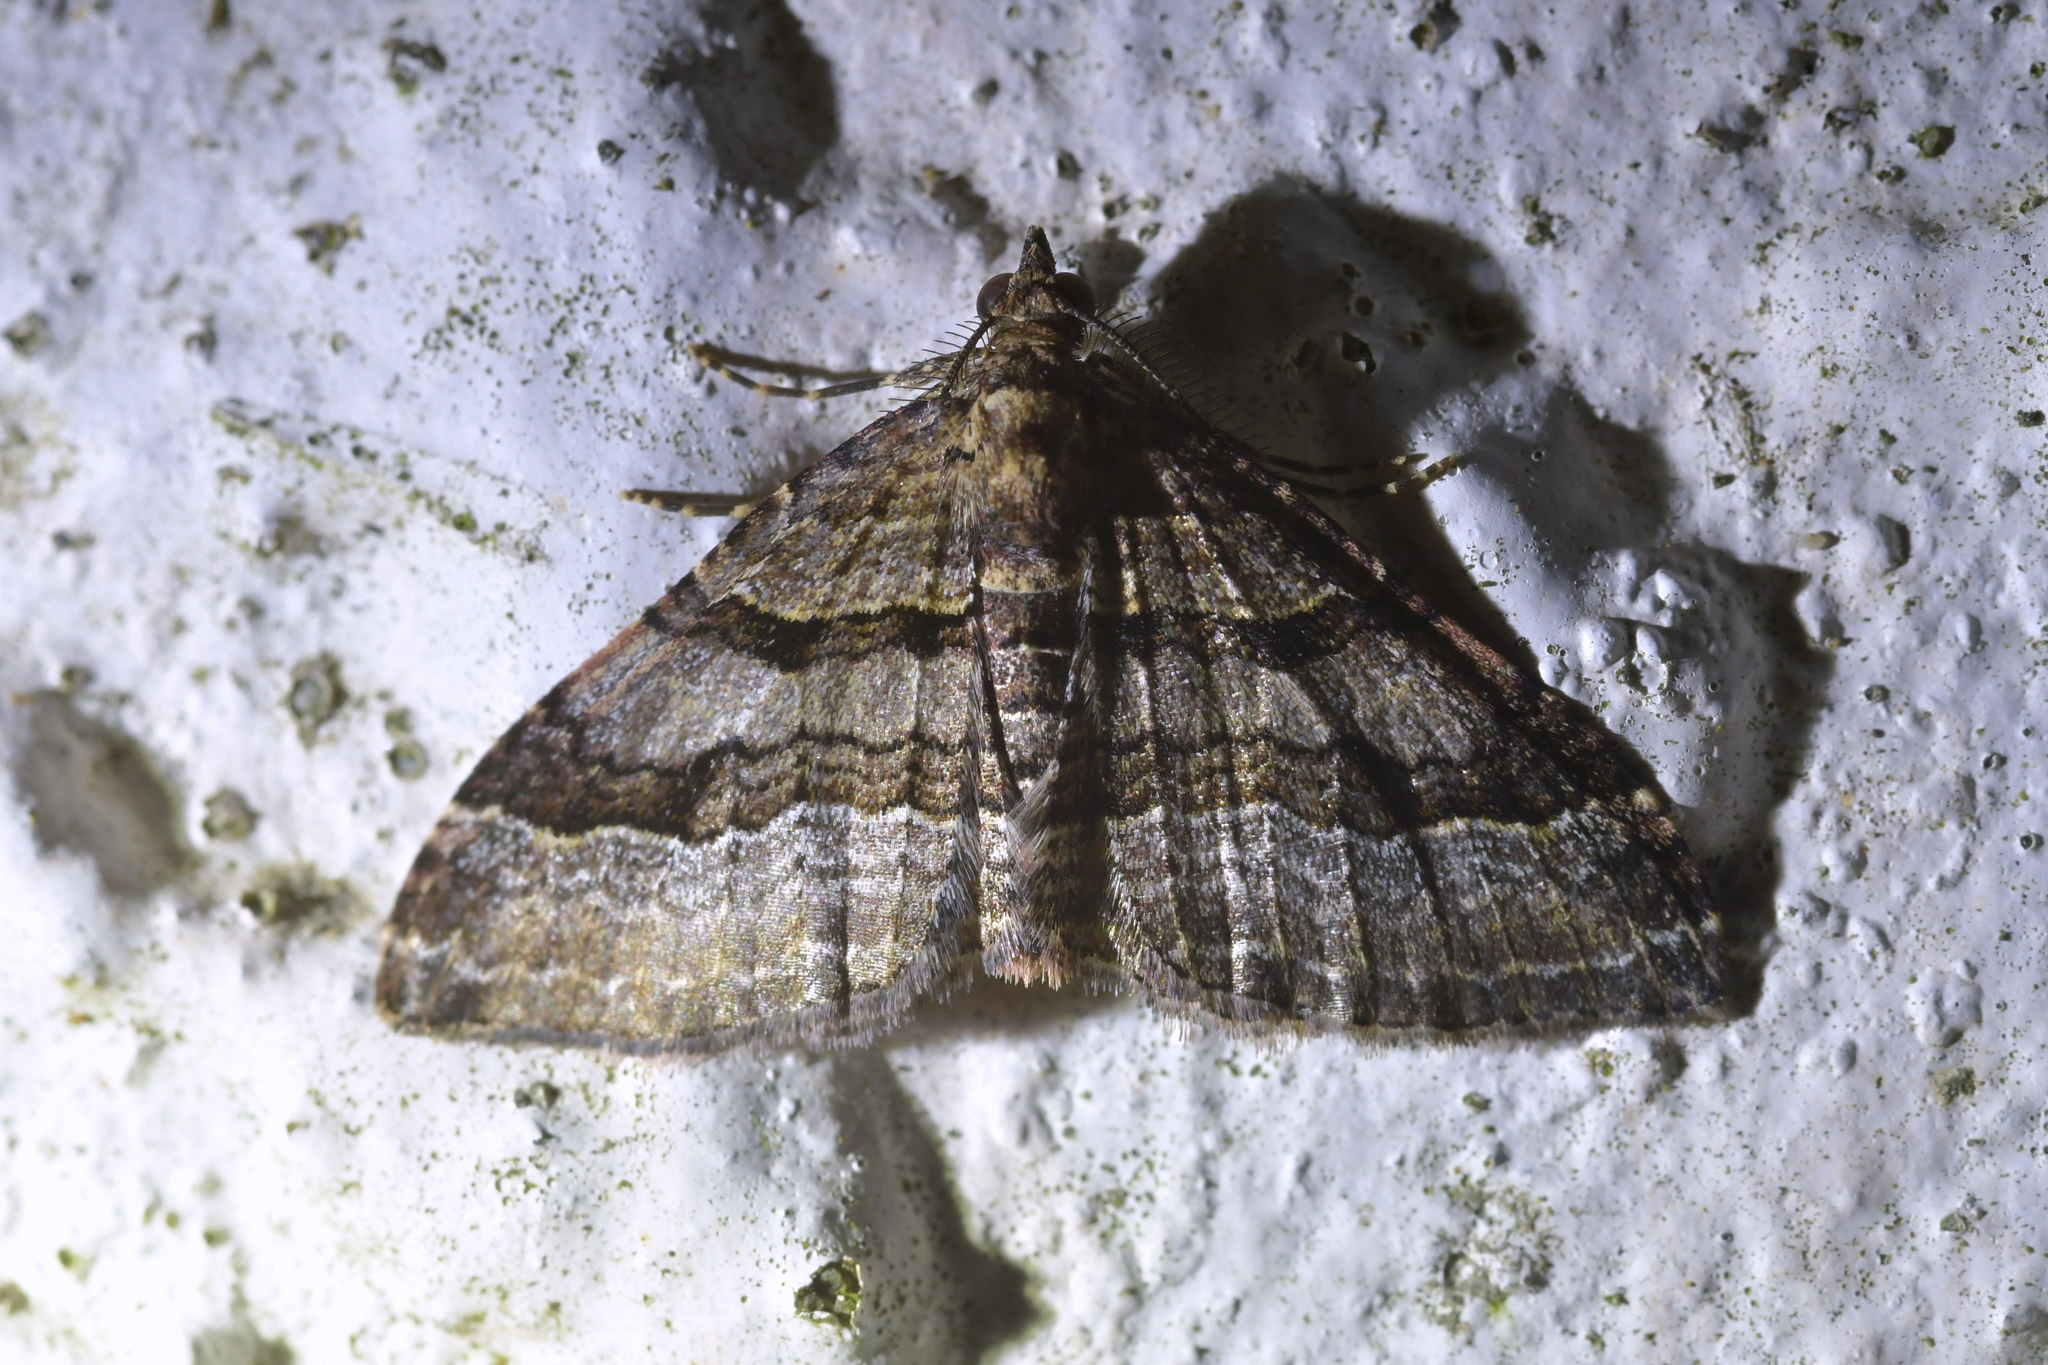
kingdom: Animalia
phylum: Arthropoda
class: Insecta
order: Lepidoptera
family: Geometridae
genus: Epyaxa
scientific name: Epyaxa lucidata
